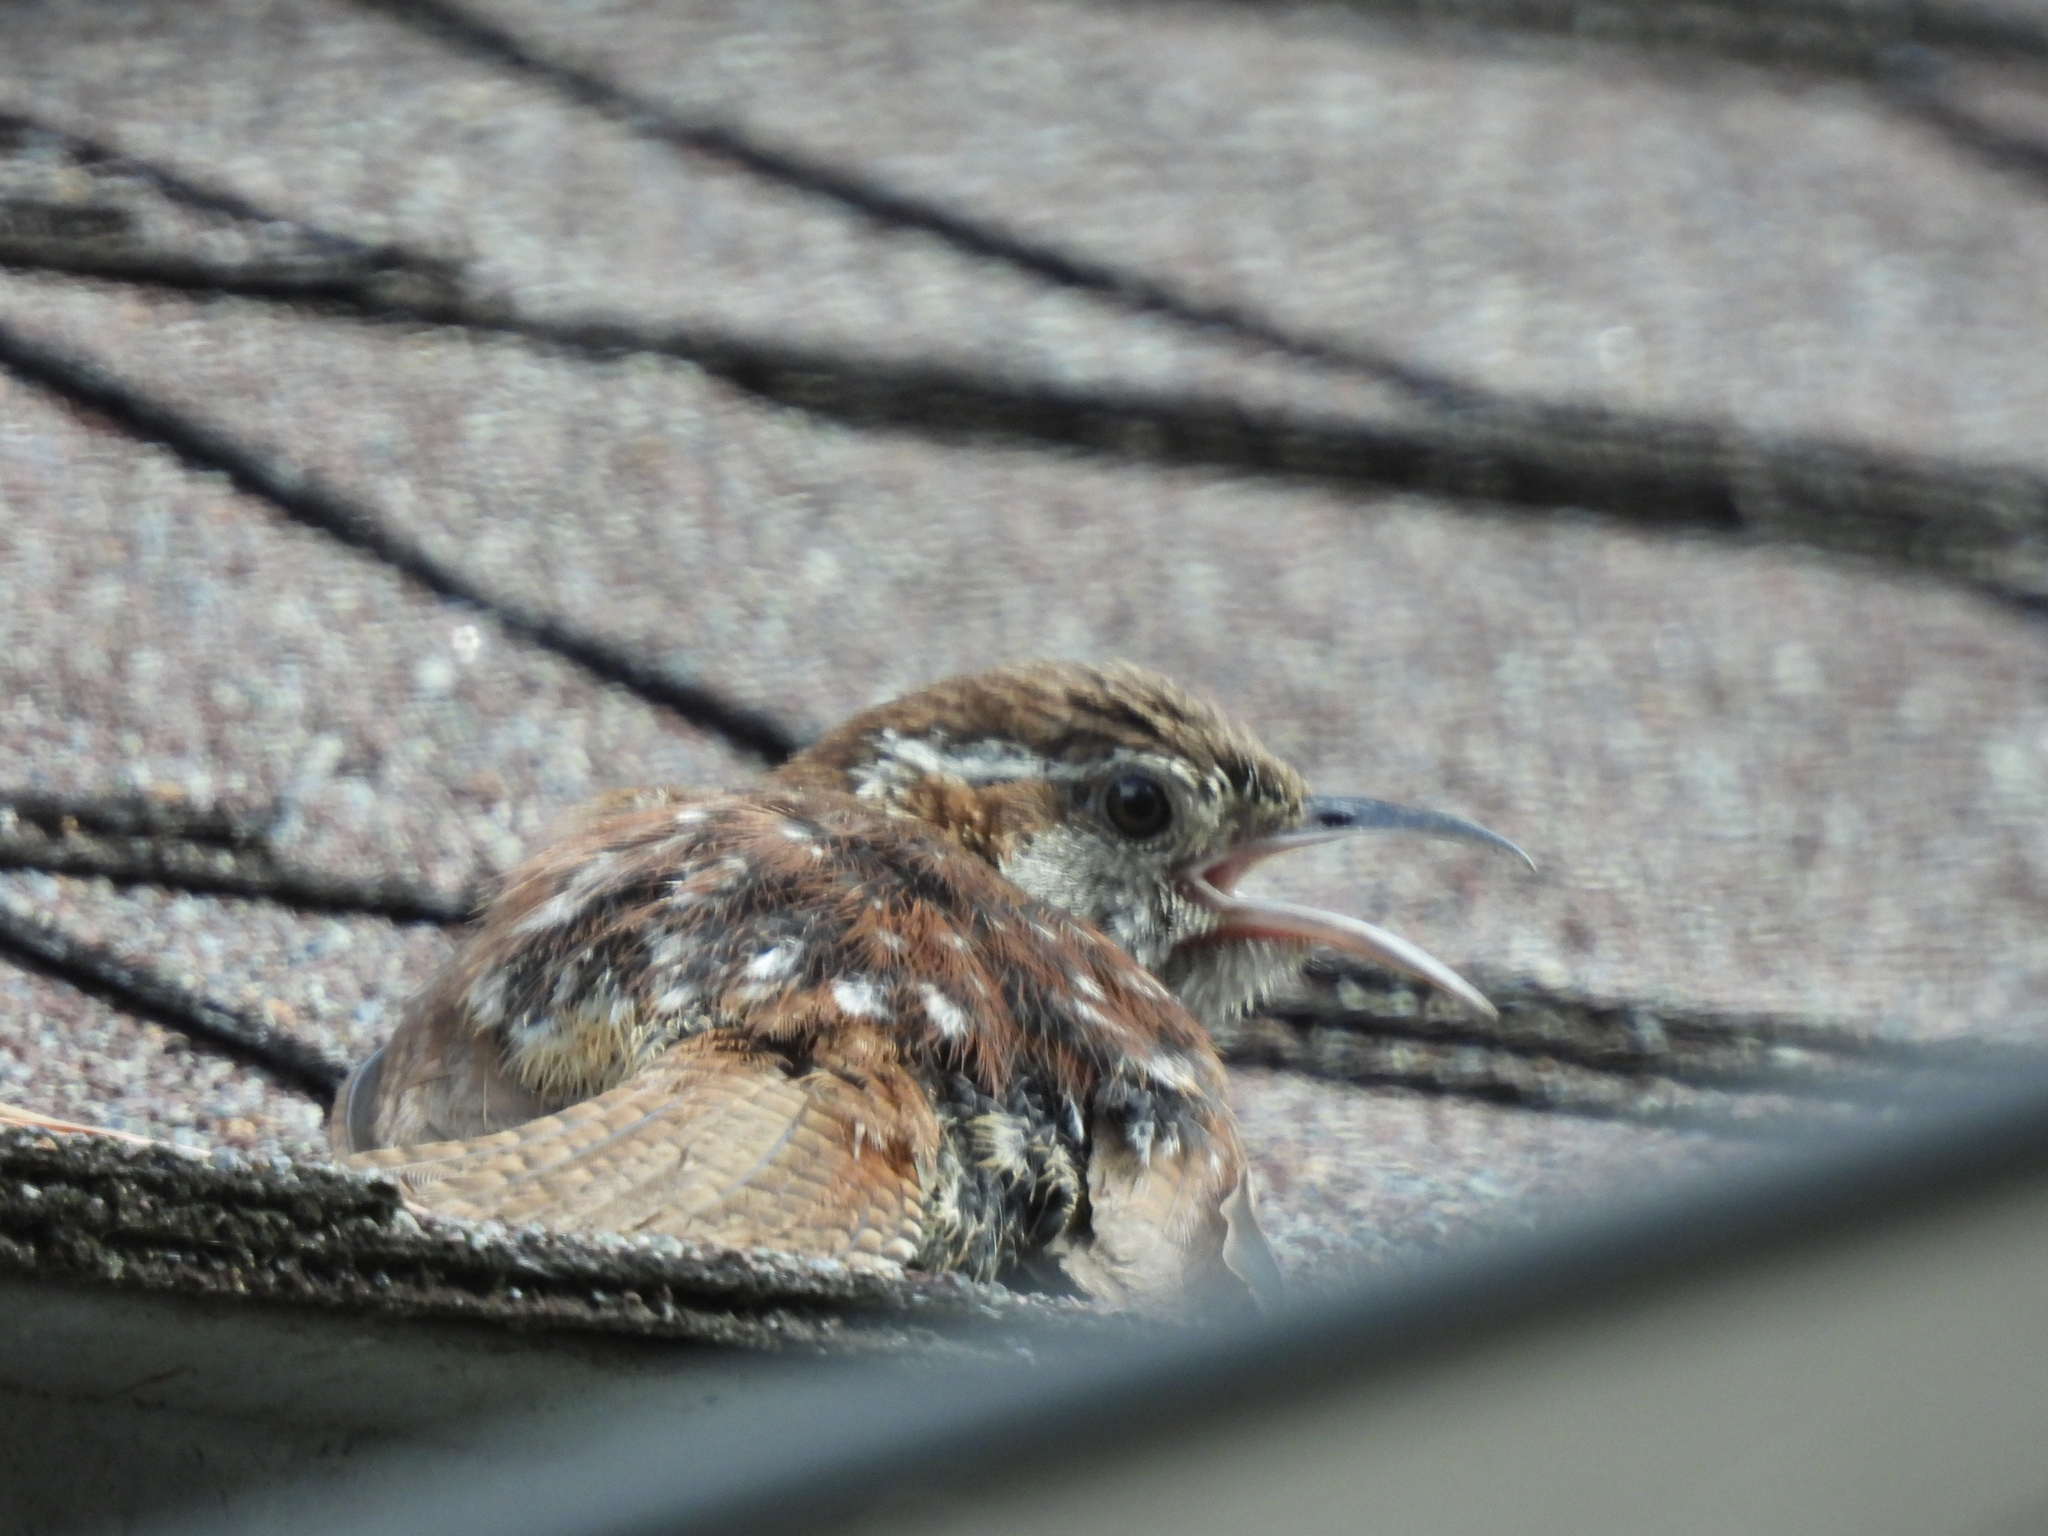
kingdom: Animalia
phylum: Chordata
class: Aves
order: Passeriformes
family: Troglodytidae
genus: Thryothorus
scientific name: Thryothorus ludovicianus
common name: Carolina wren
